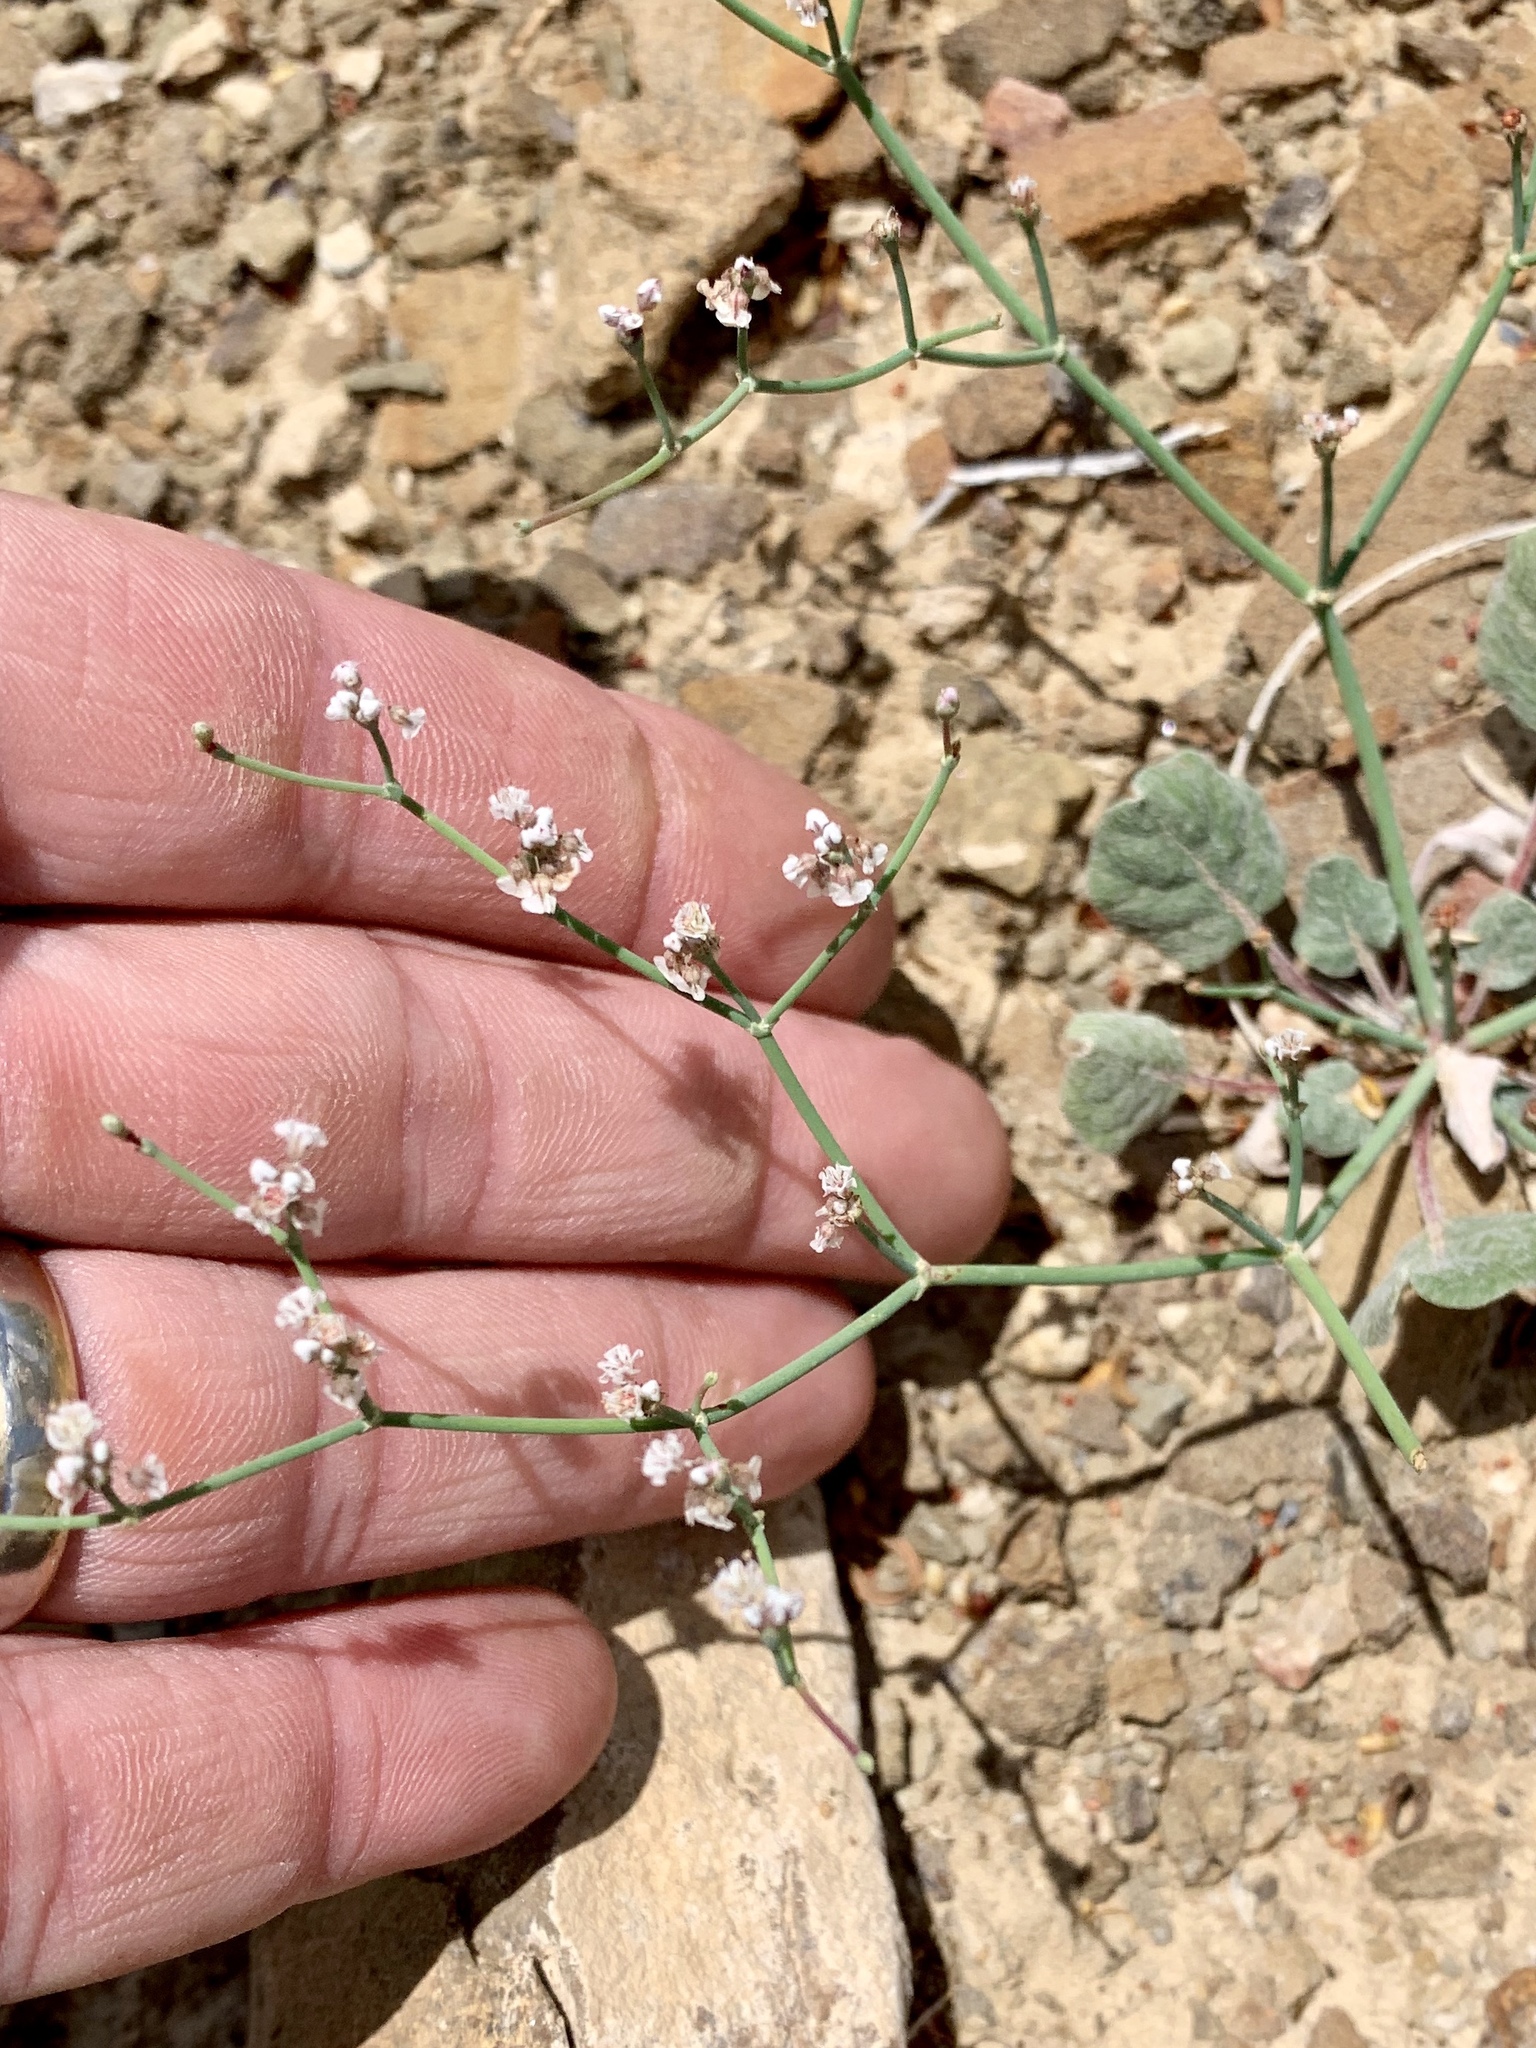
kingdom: Plantae
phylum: Tracheophyta
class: Magnoliopsida
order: Caryophyllales
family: Polygonaceae
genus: Eriogonum
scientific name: Eriogonum rotundifolium
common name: Round-leaf wild buckwheat
